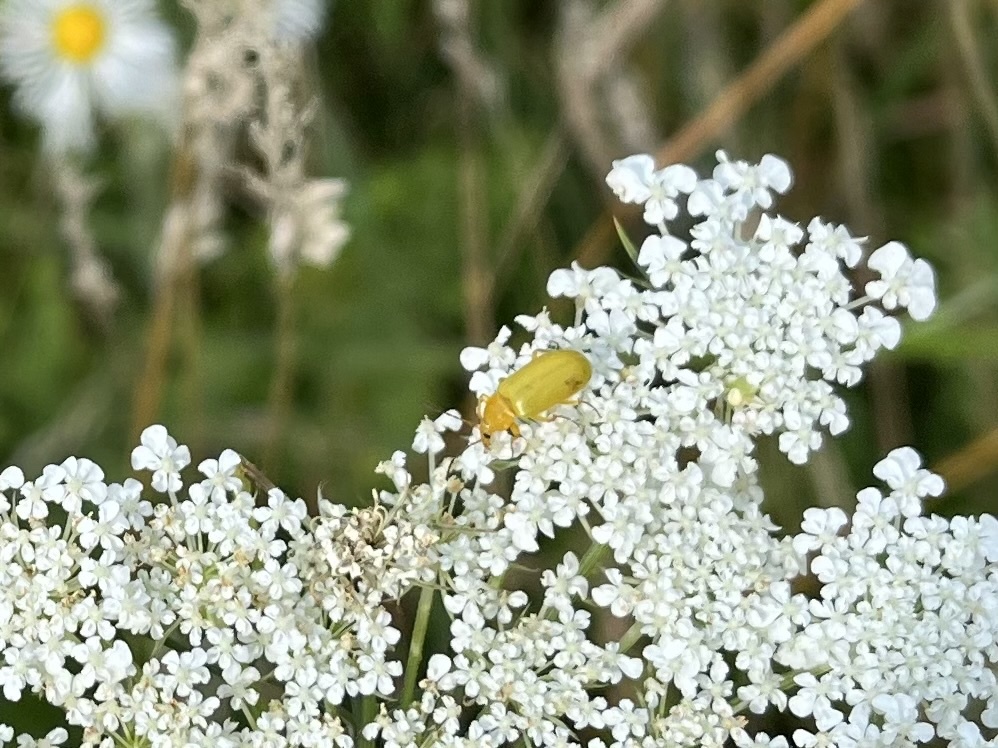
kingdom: Animalia
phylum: Arthropoda
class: Insecta
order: Coleoptera
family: Tenebrionidae
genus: Cteniopus
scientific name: Cteniopus sulphureus
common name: Sulphur beetle
